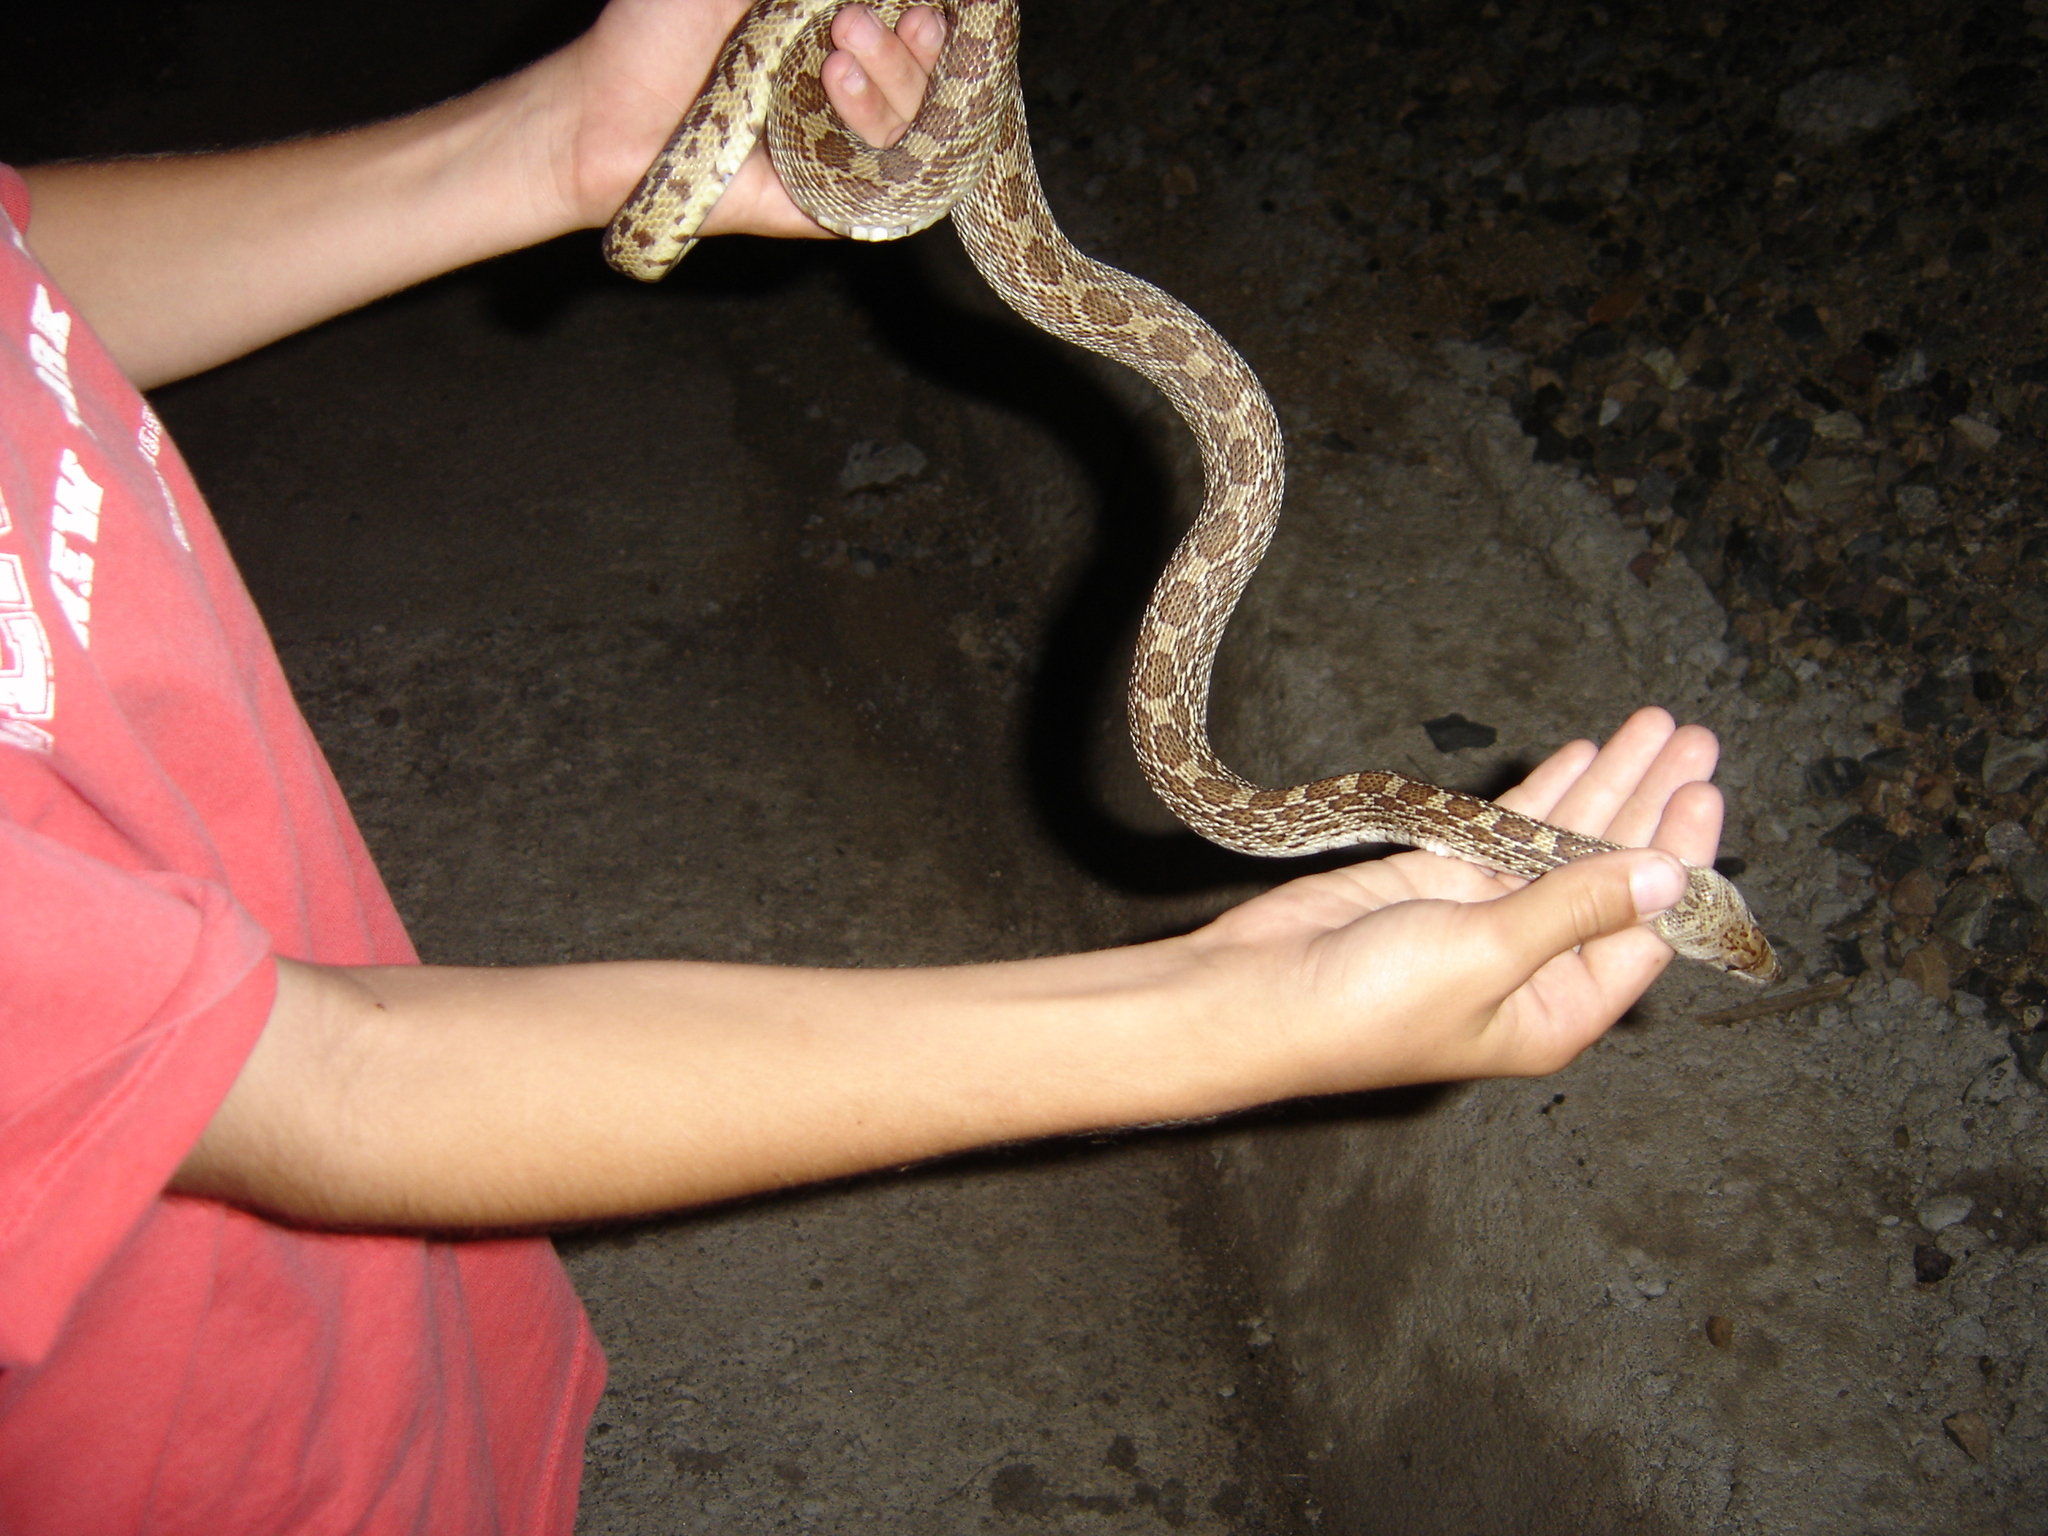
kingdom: Animalia
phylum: Chordata
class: Squamata
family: Colubridae
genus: Pituophis
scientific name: Pituophis catenifer
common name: Gopher snake
